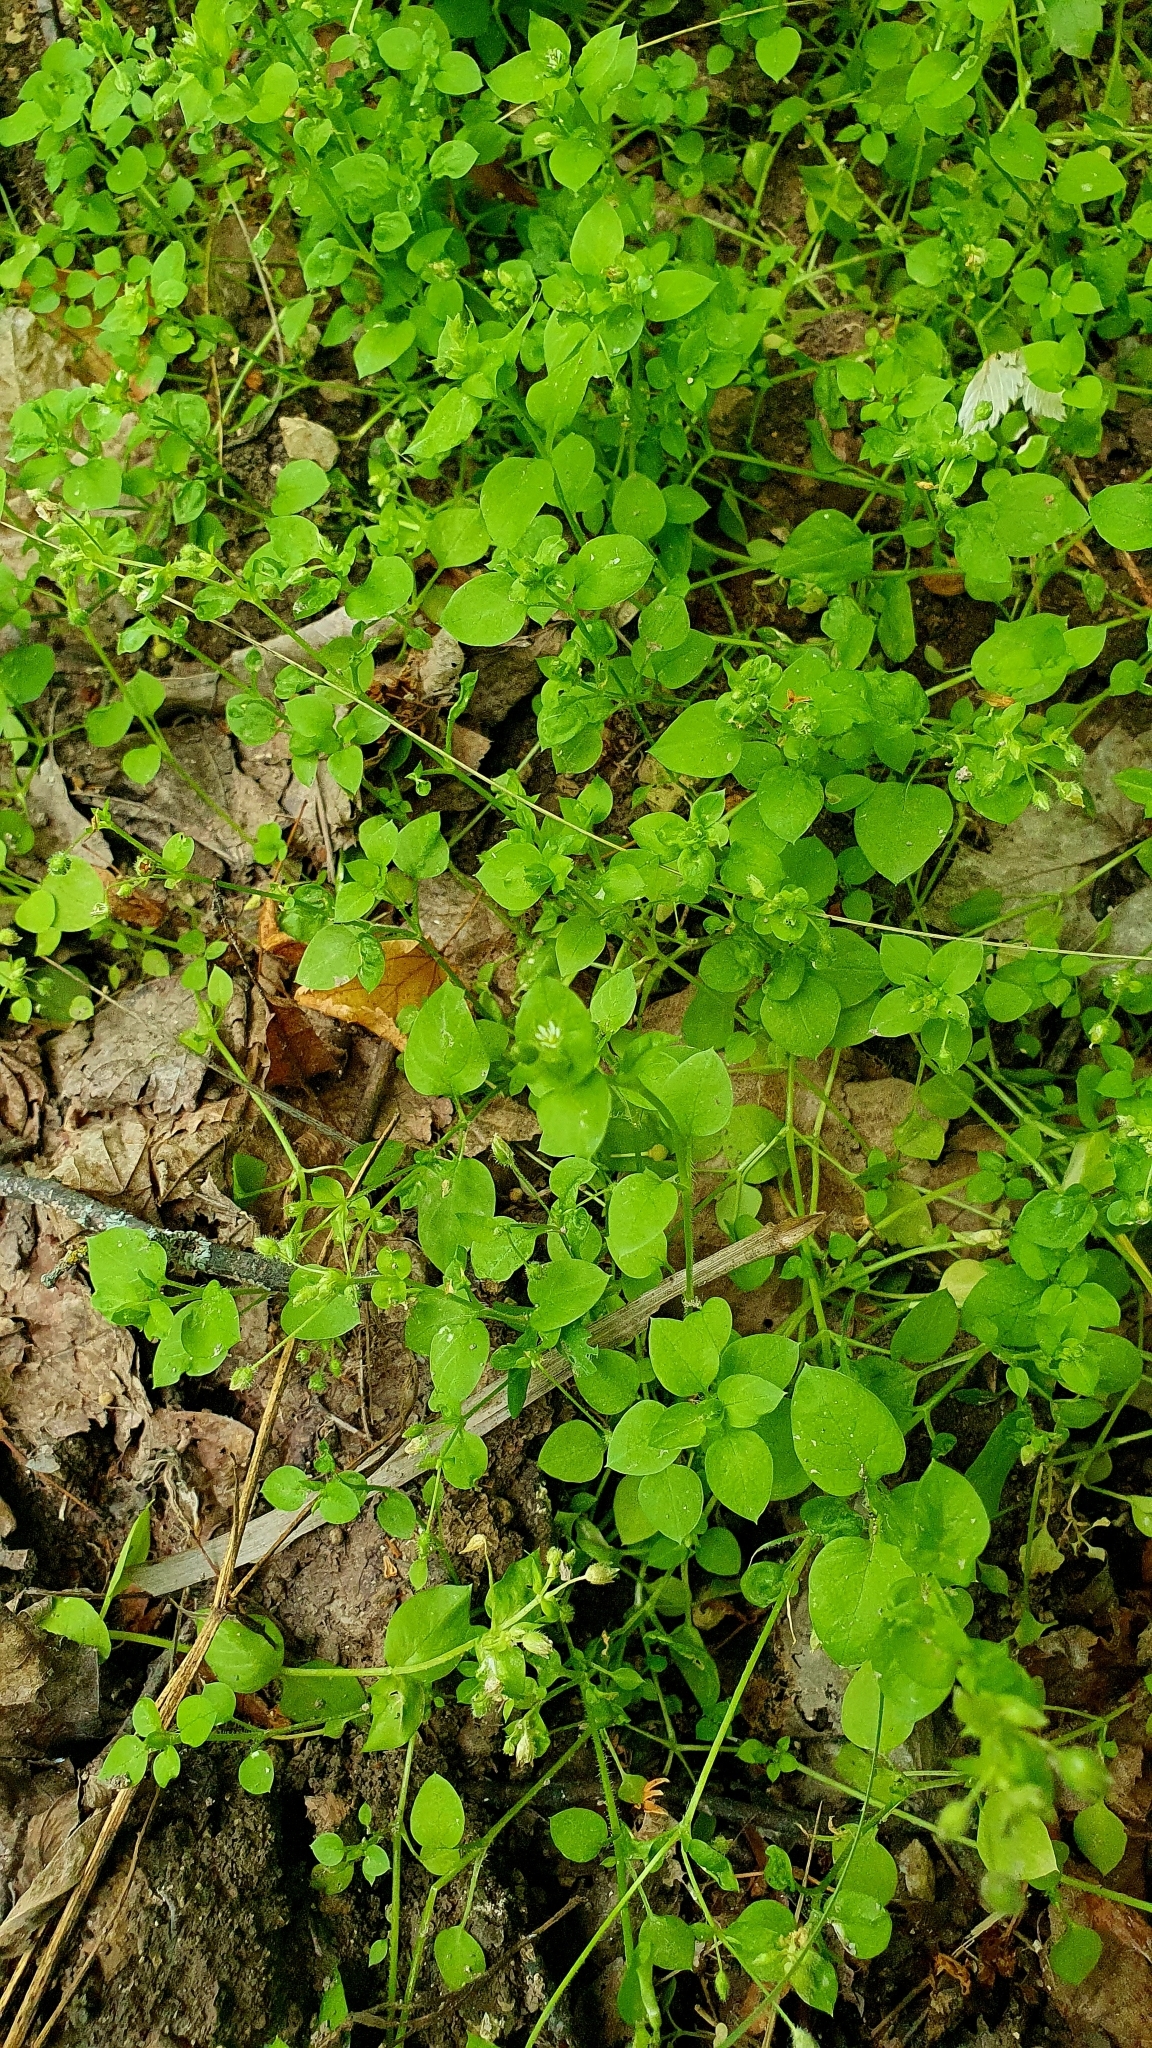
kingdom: Plantae
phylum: Tracheophyta
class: Magnoliopsida
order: Caryophyllales
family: Caryophyllaceae
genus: Stellaria
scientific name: Stellaria media
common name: Common chickweed
